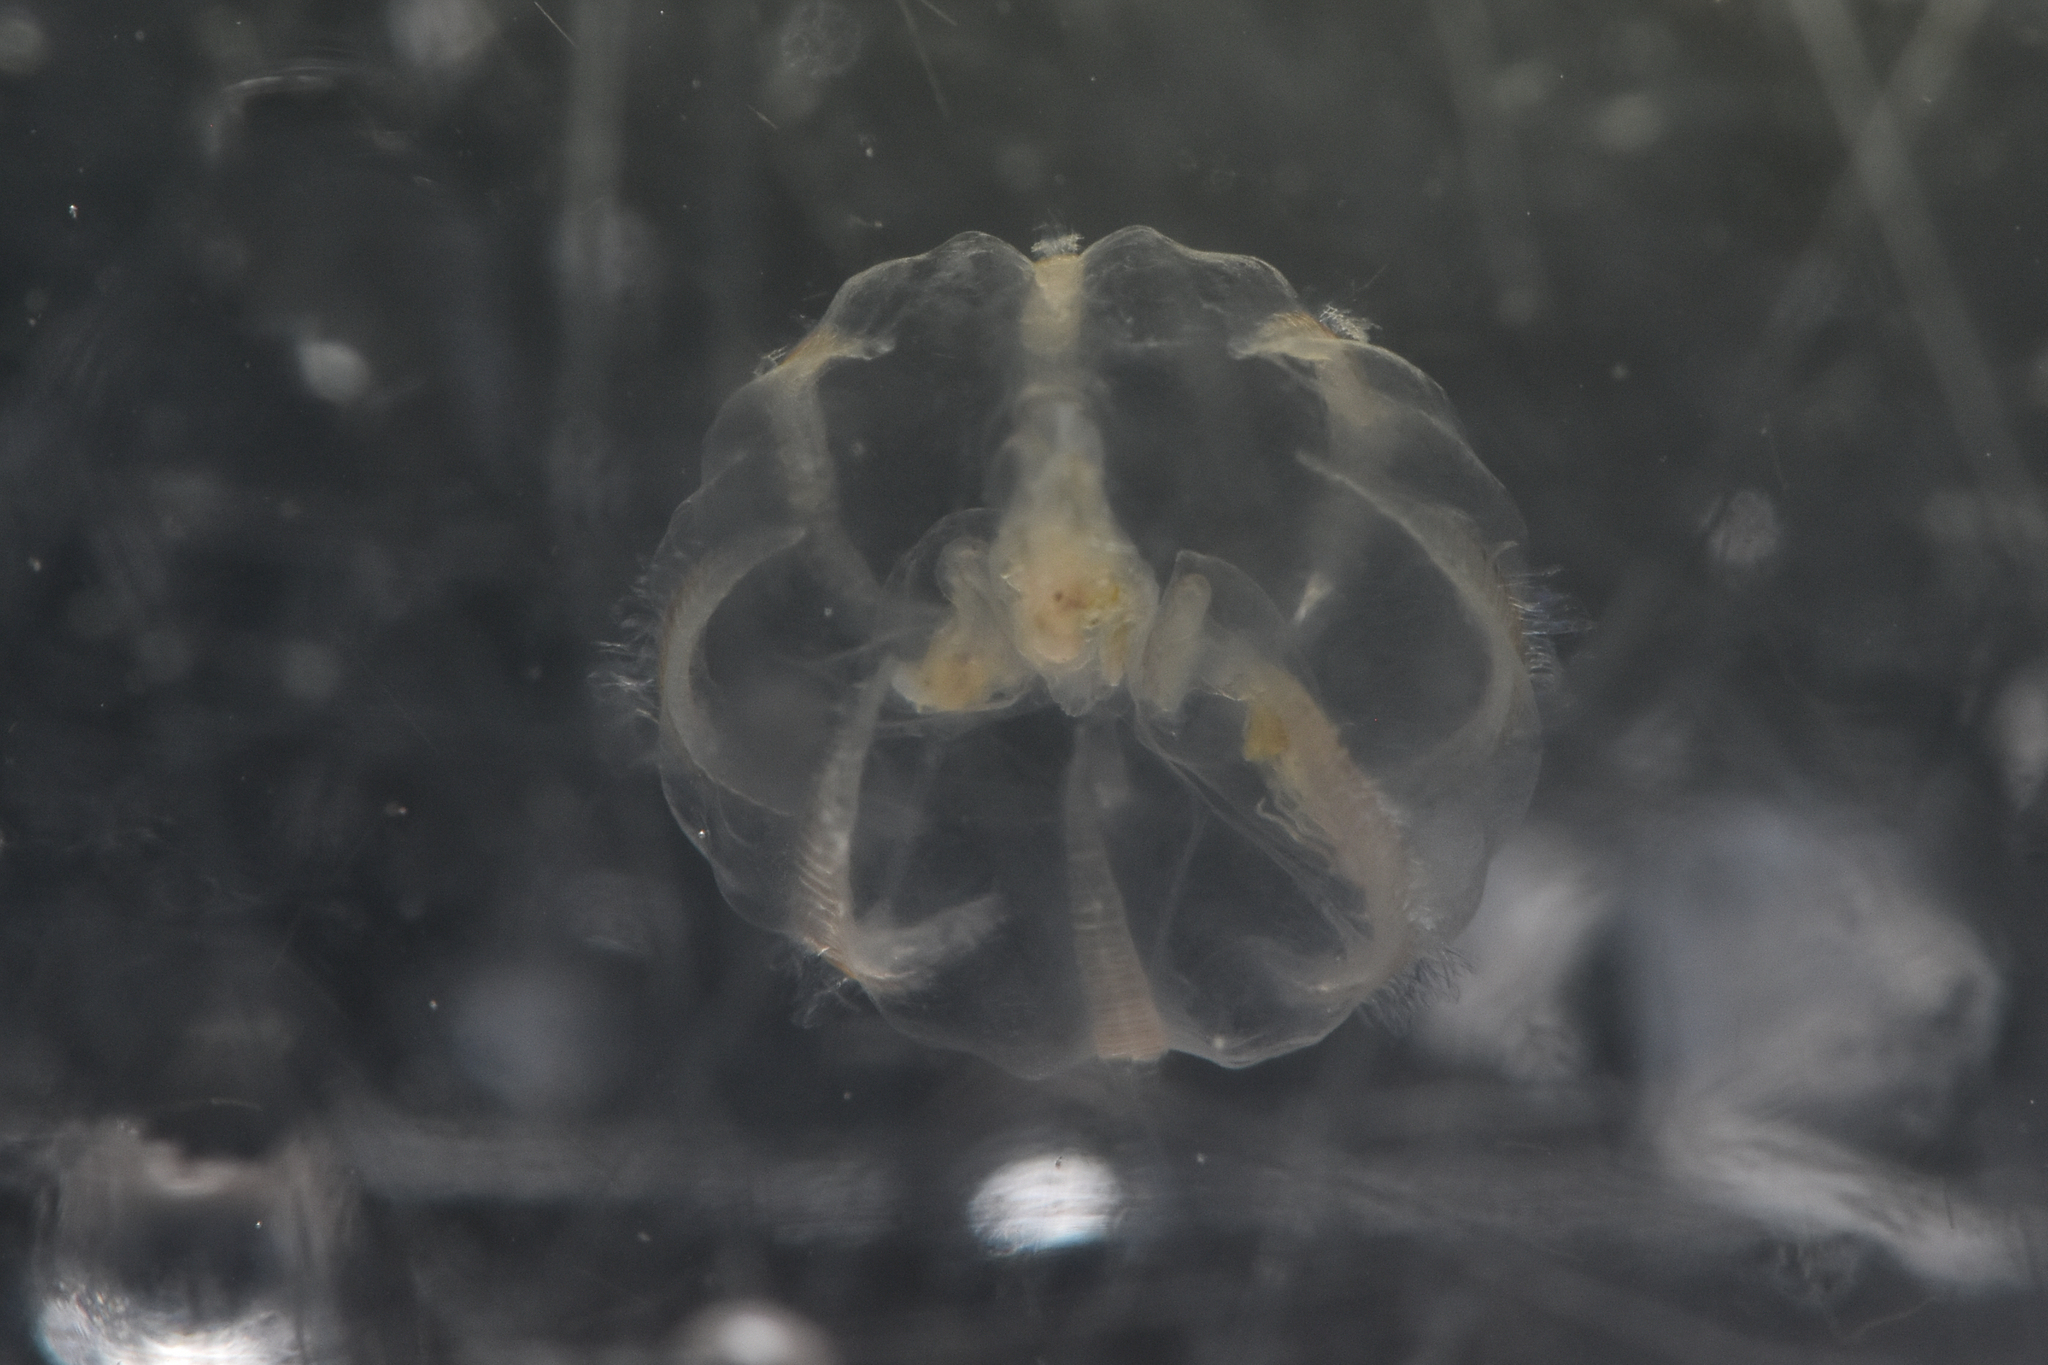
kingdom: Animalia
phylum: Ctenophora
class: Tentaculata
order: Cydippida
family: Pleurobrachiidae
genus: Pleurobrachia
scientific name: Pleurobrachia bachei
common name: Pacific sea gooseberry
